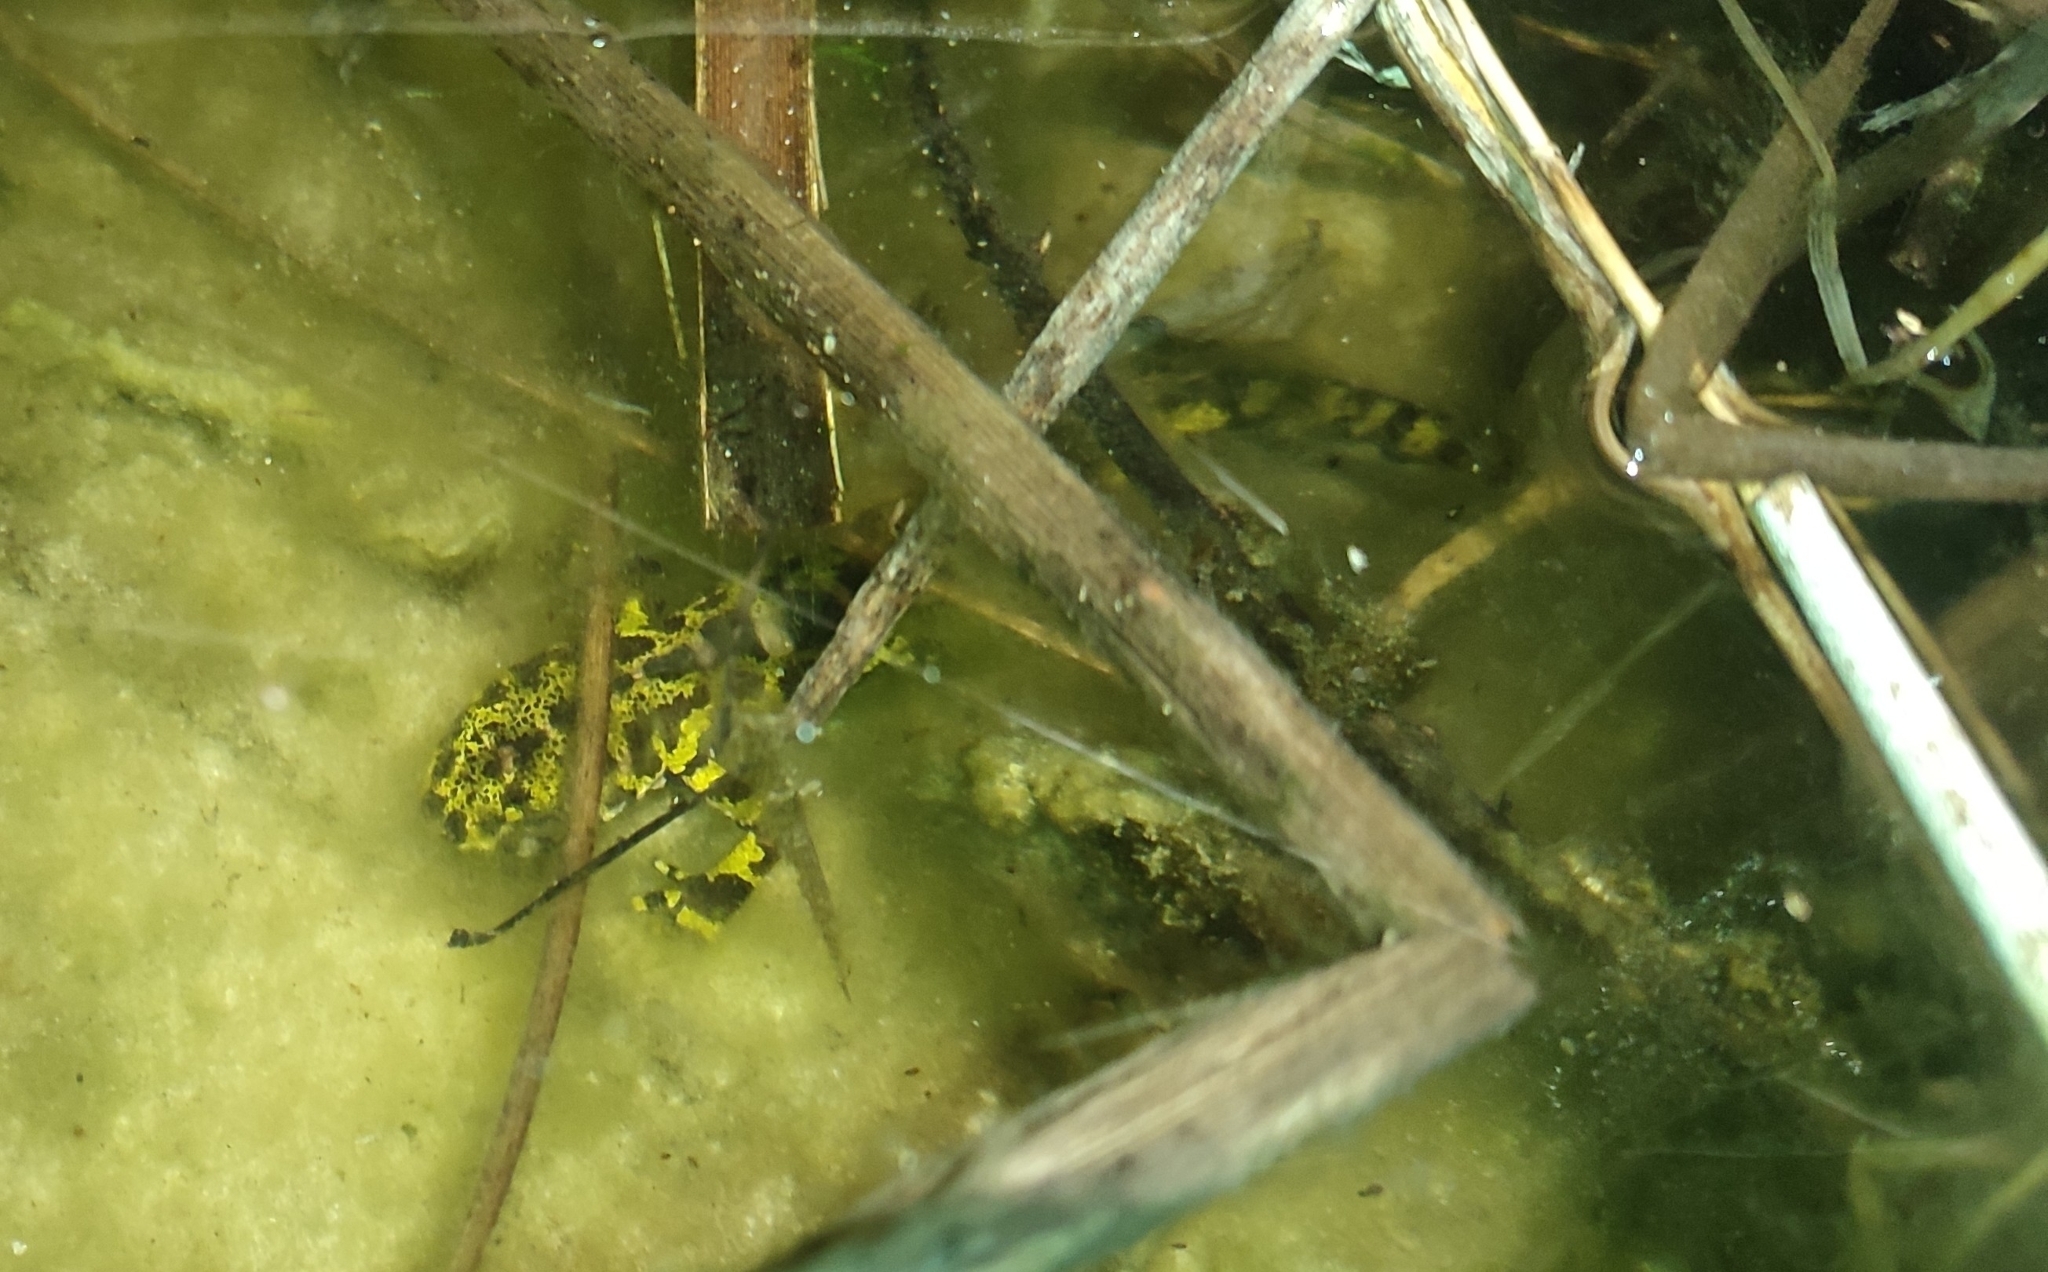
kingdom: Animalia
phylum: Chordata
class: Amphibia
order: Caudata
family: Salamandridae
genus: Triturus
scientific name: Triturus marmoratus
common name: Marbled newt
